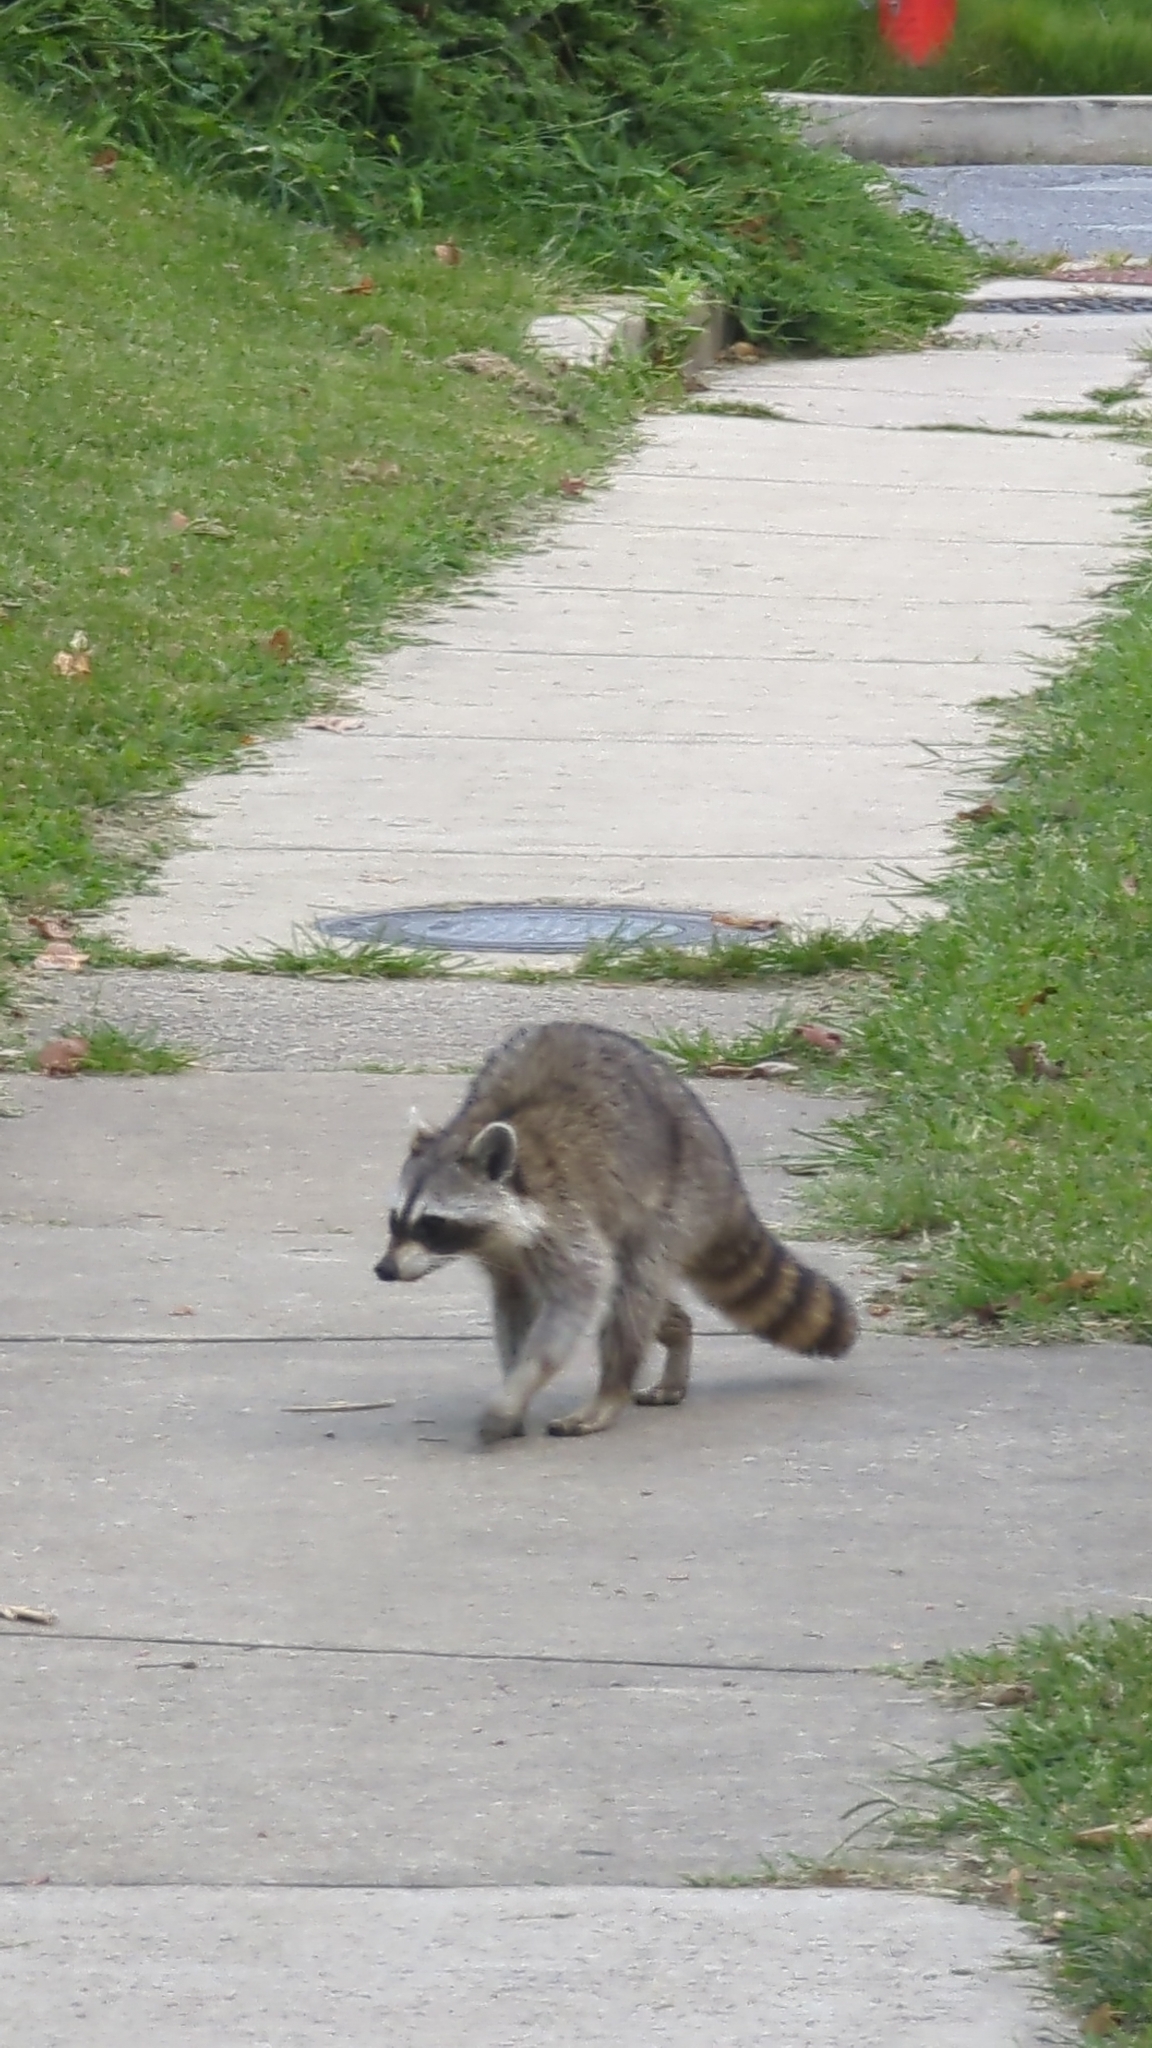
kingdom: Animalia
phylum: Chordata
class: Mammalia
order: Carnivora
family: Procyonidae
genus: Procyon
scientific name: Procyon lotor
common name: Raccoon
